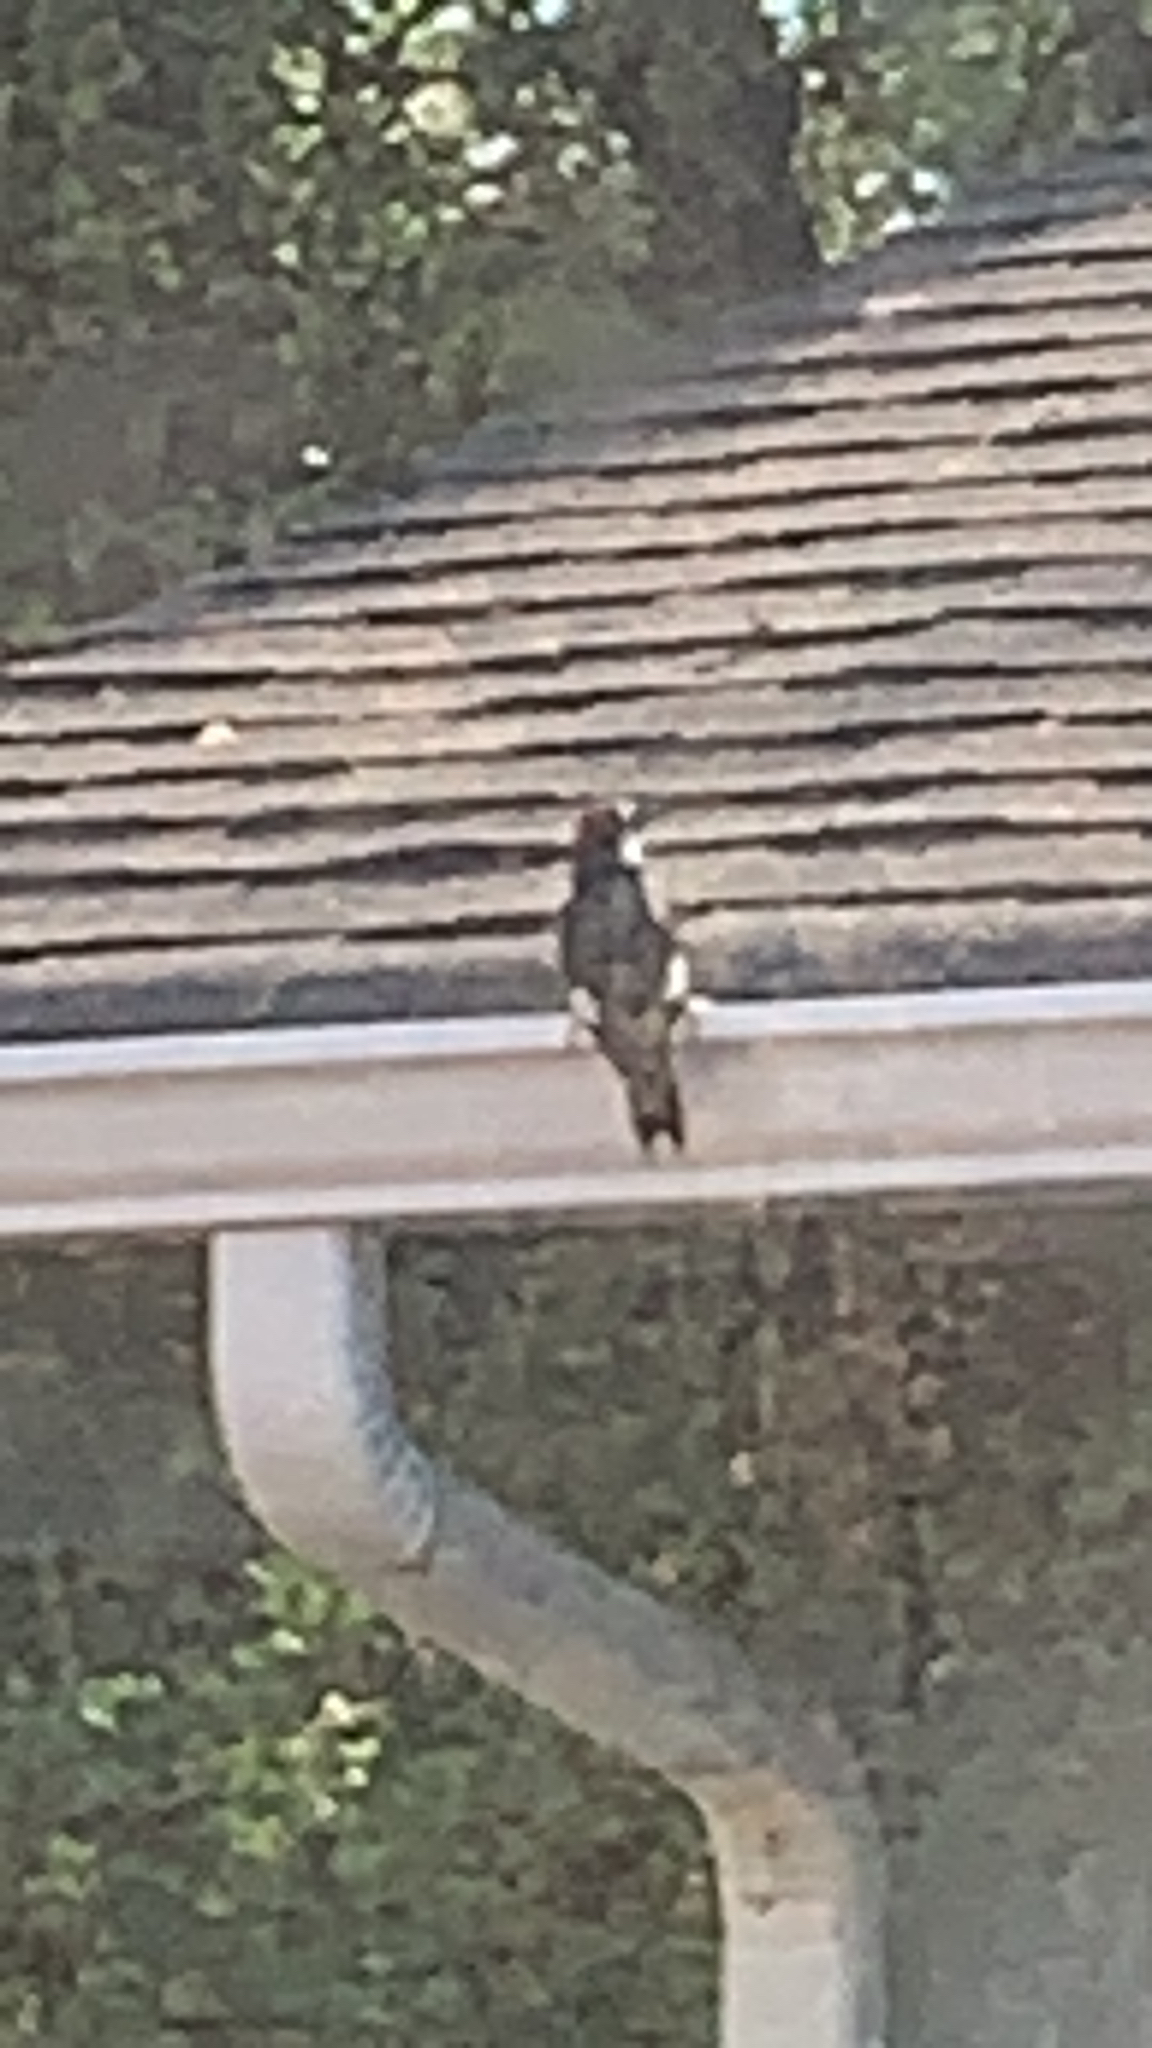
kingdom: Animalia
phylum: Chordata
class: Aves
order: Piciformes
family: Picidae
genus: Melanerpes
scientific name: Melanerpes formicivorus
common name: Acorn woodpecker
